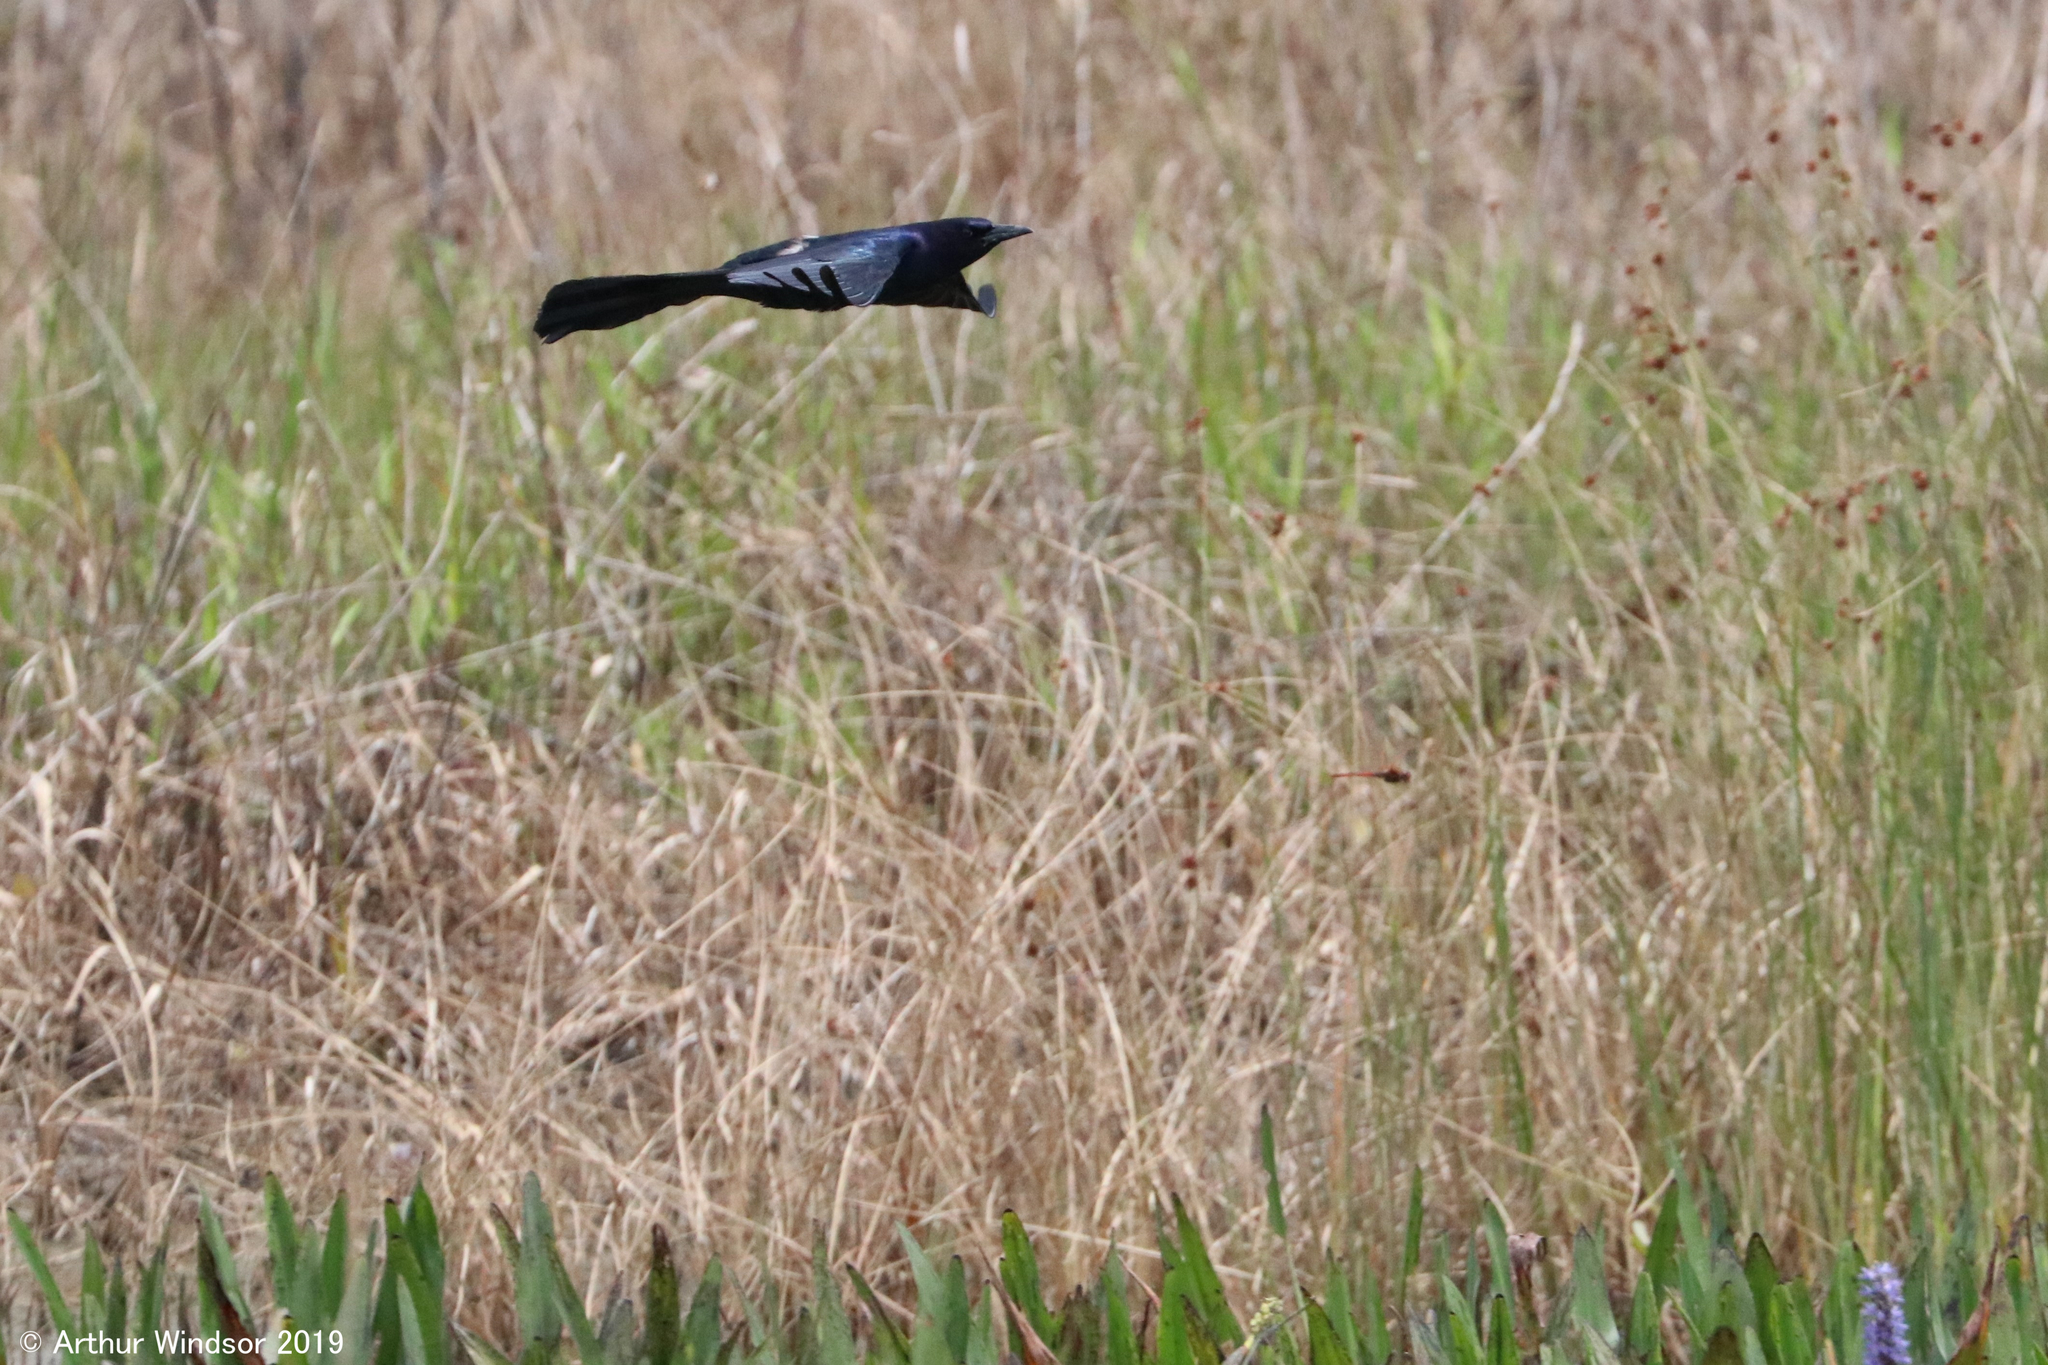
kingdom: Animalia
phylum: Chordata
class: Aves
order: Passeriformes
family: Icteridae
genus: Quiscalus
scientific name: Quiscalus major
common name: Boat-tailed grackle
